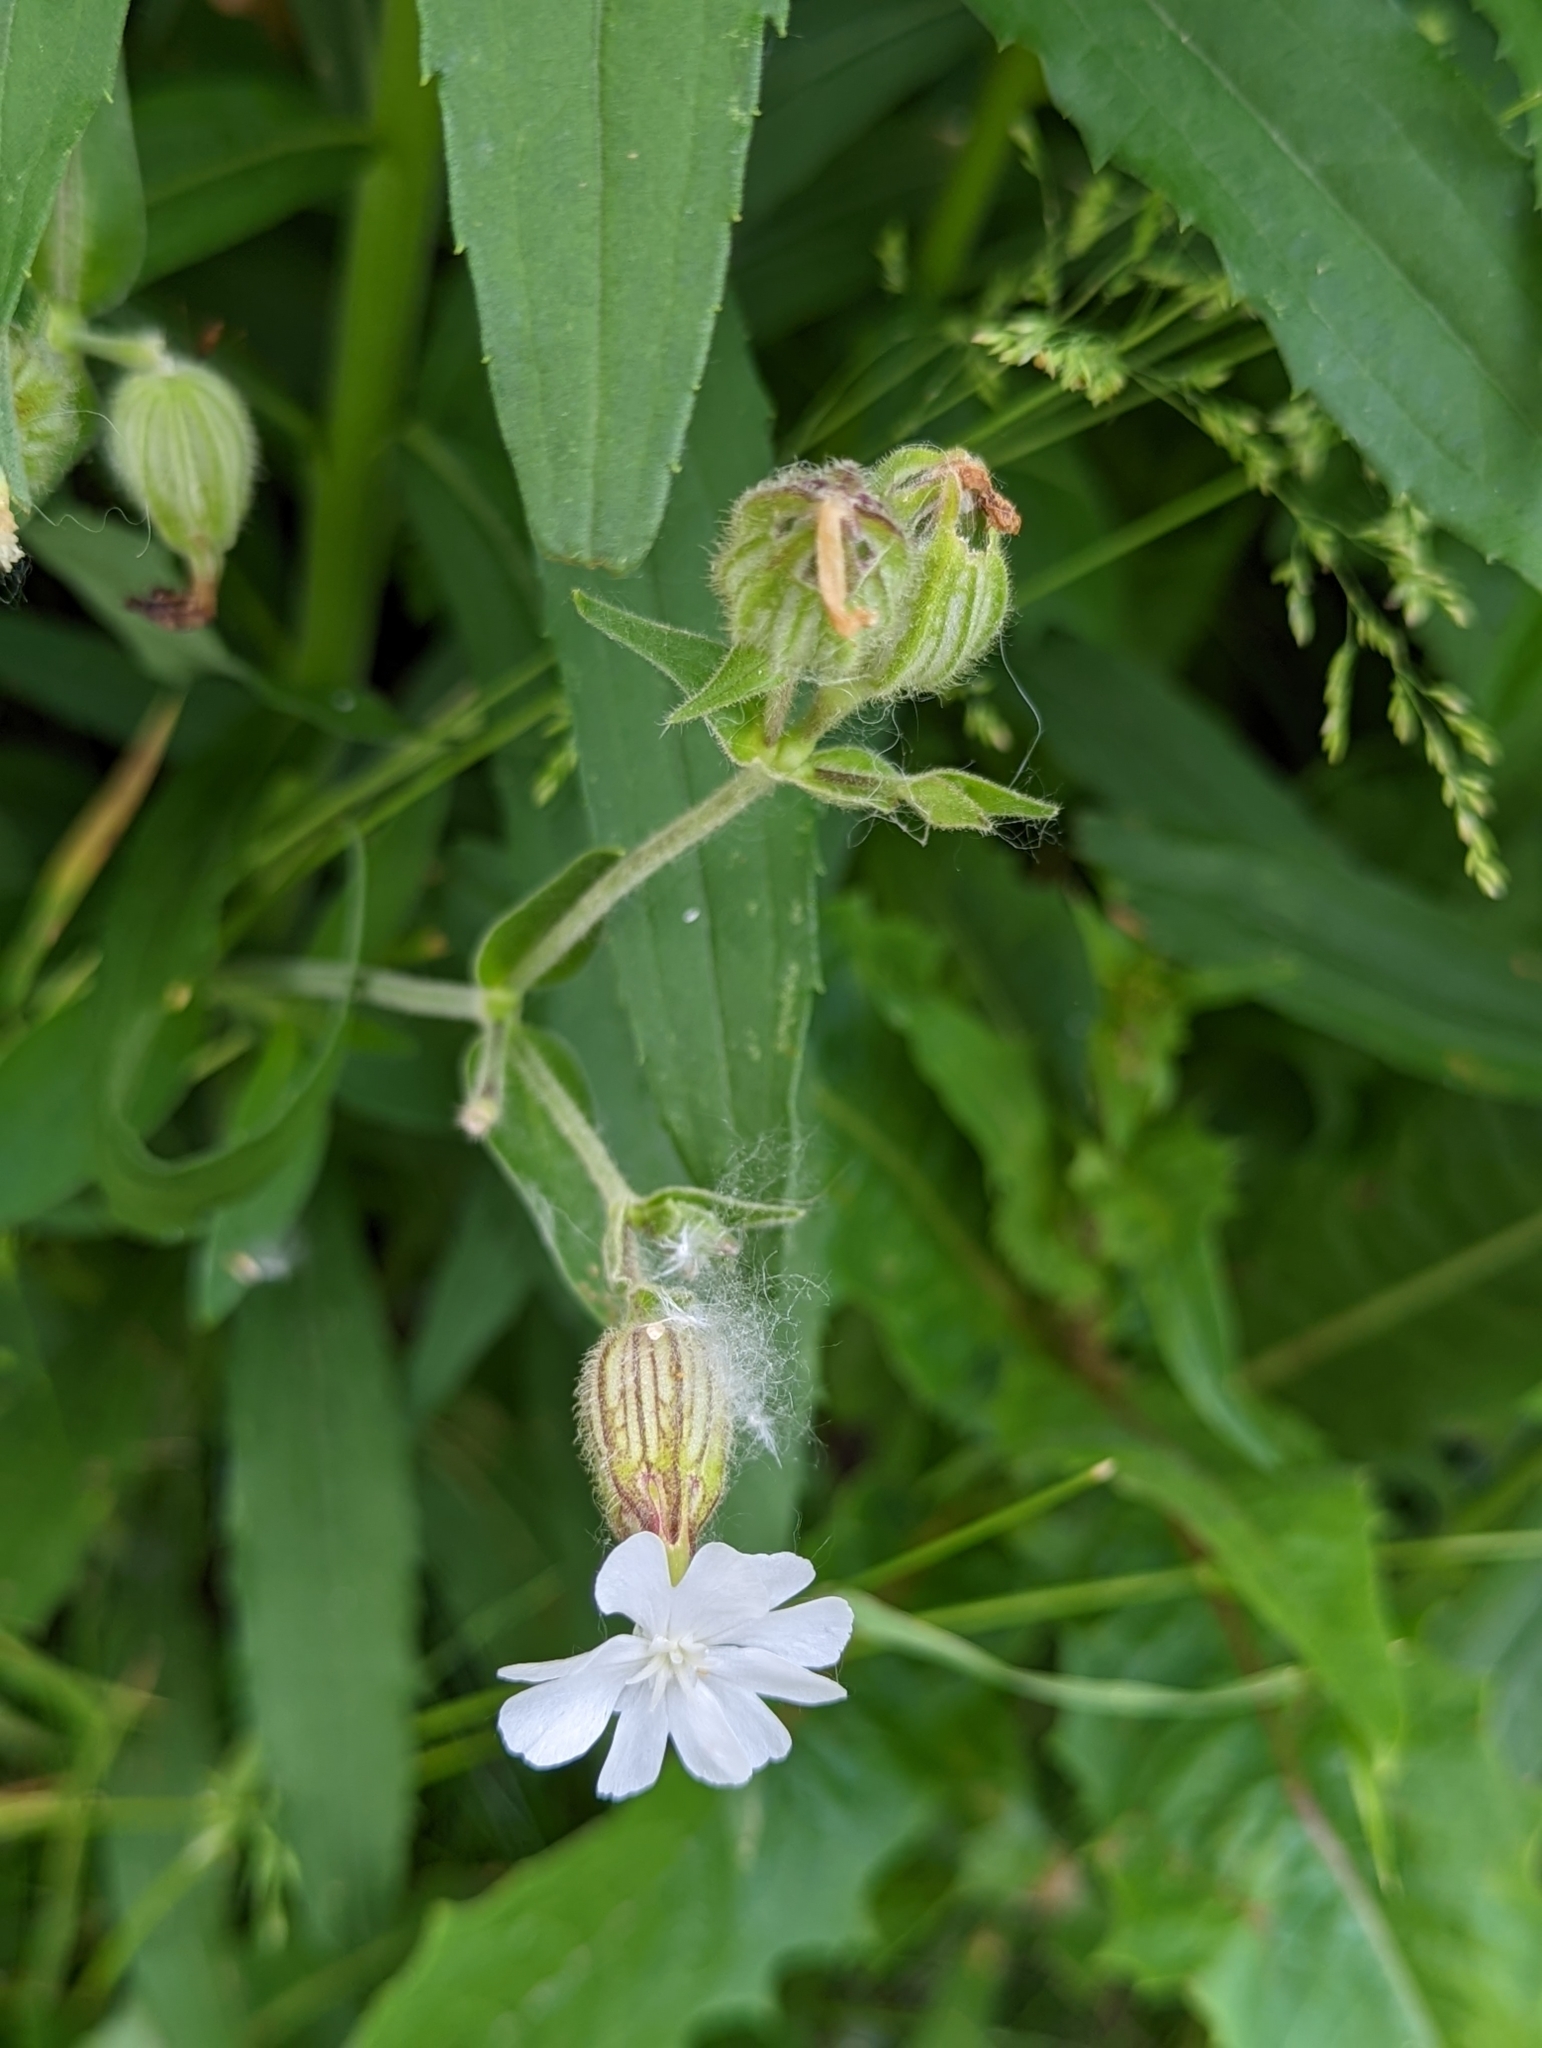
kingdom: Plantae
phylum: Tracheophyta
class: Magnoliopsida
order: Caryophyllales
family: Caryophyllaceae
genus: Silene
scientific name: Silene latifolia
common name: White campion
